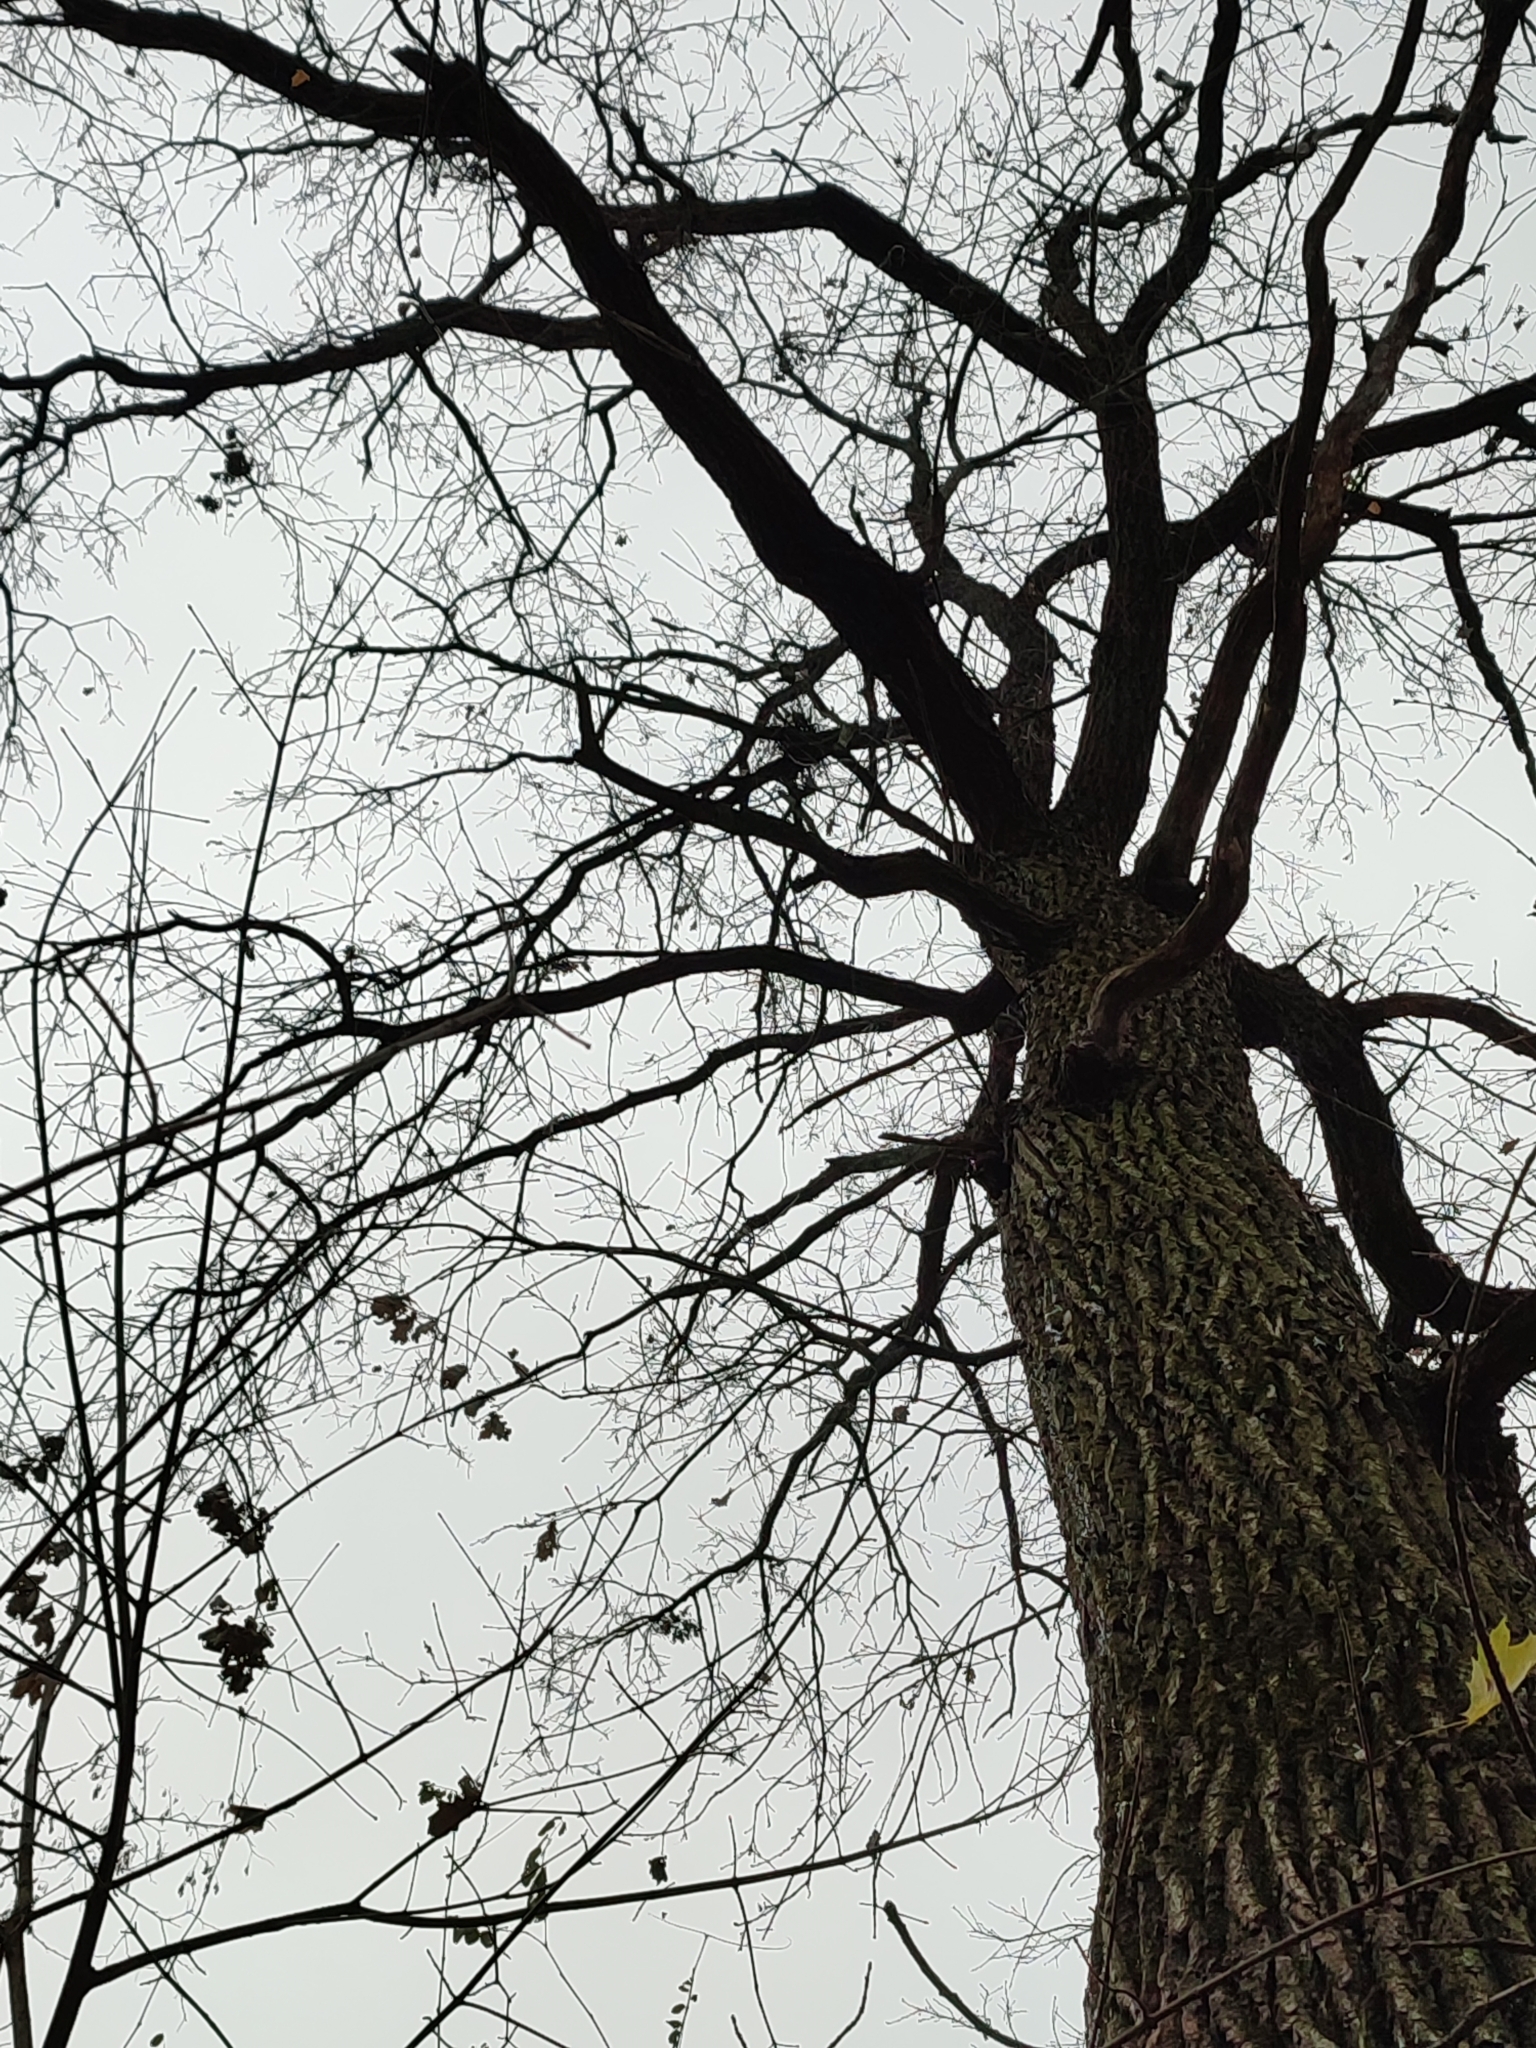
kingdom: Plantae
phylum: Tracheophyta
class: Magnoliopsida
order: Fagales
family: Fagaceae
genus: Quercus
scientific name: Quercus robur
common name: Pedunculate oak
